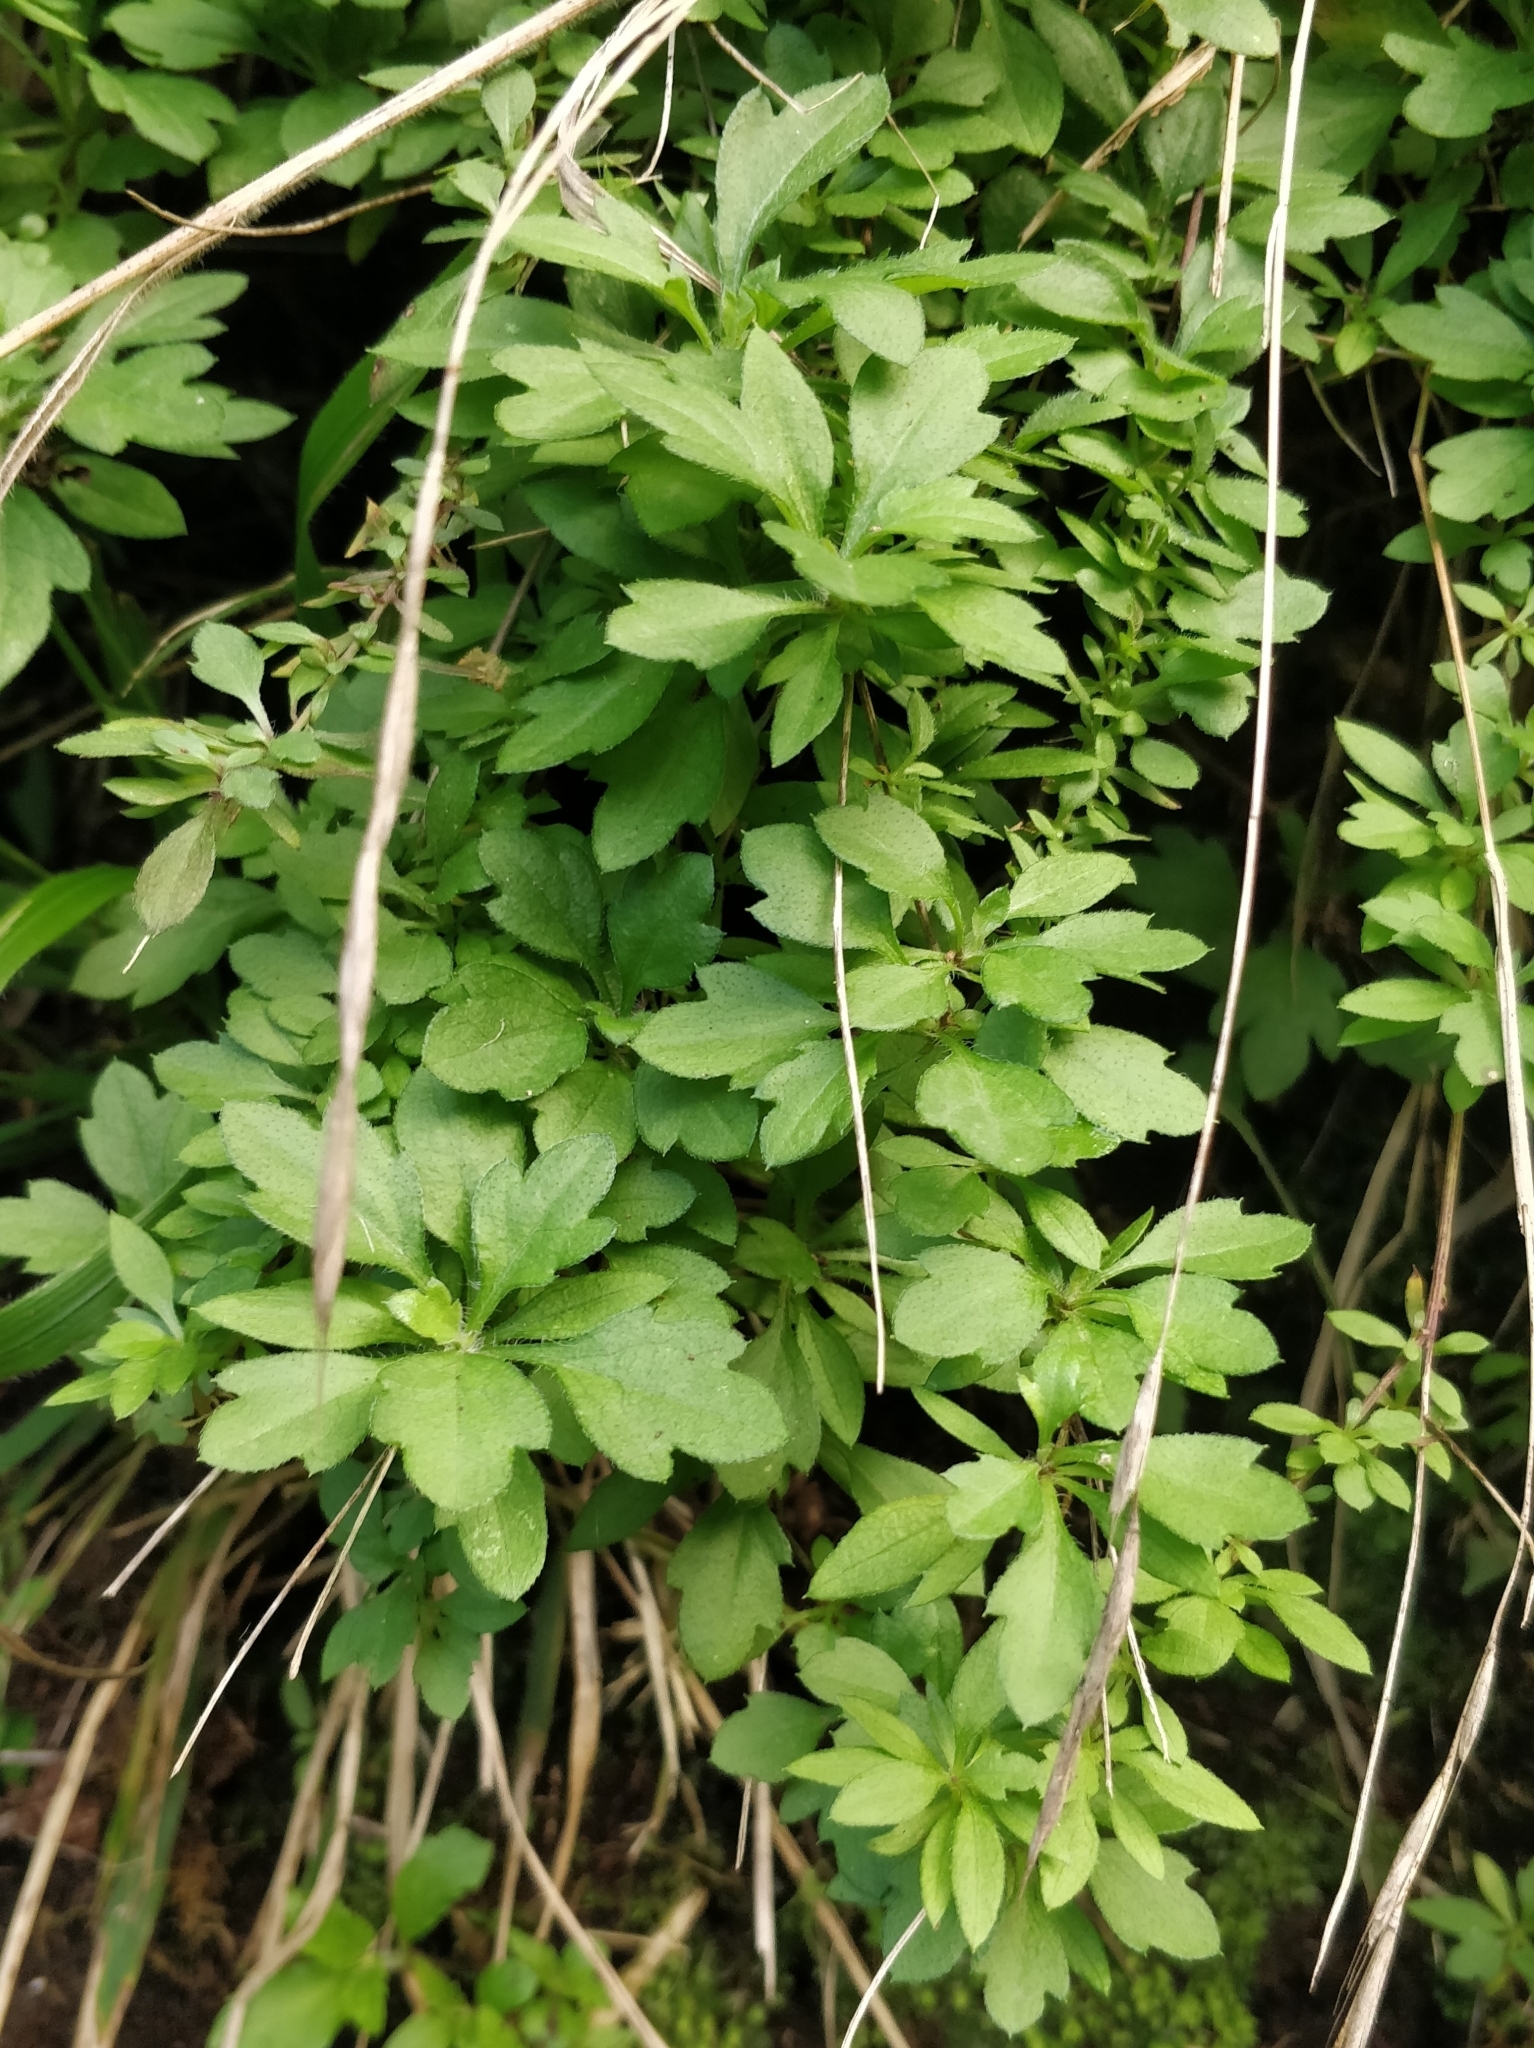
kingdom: Plantae
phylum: Tracheophyta
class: Magnoliopsida
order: Asterales
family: Asteraceae
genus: Erigeron
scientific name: Erigeron karvinskianus
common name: Mexican fleabane
